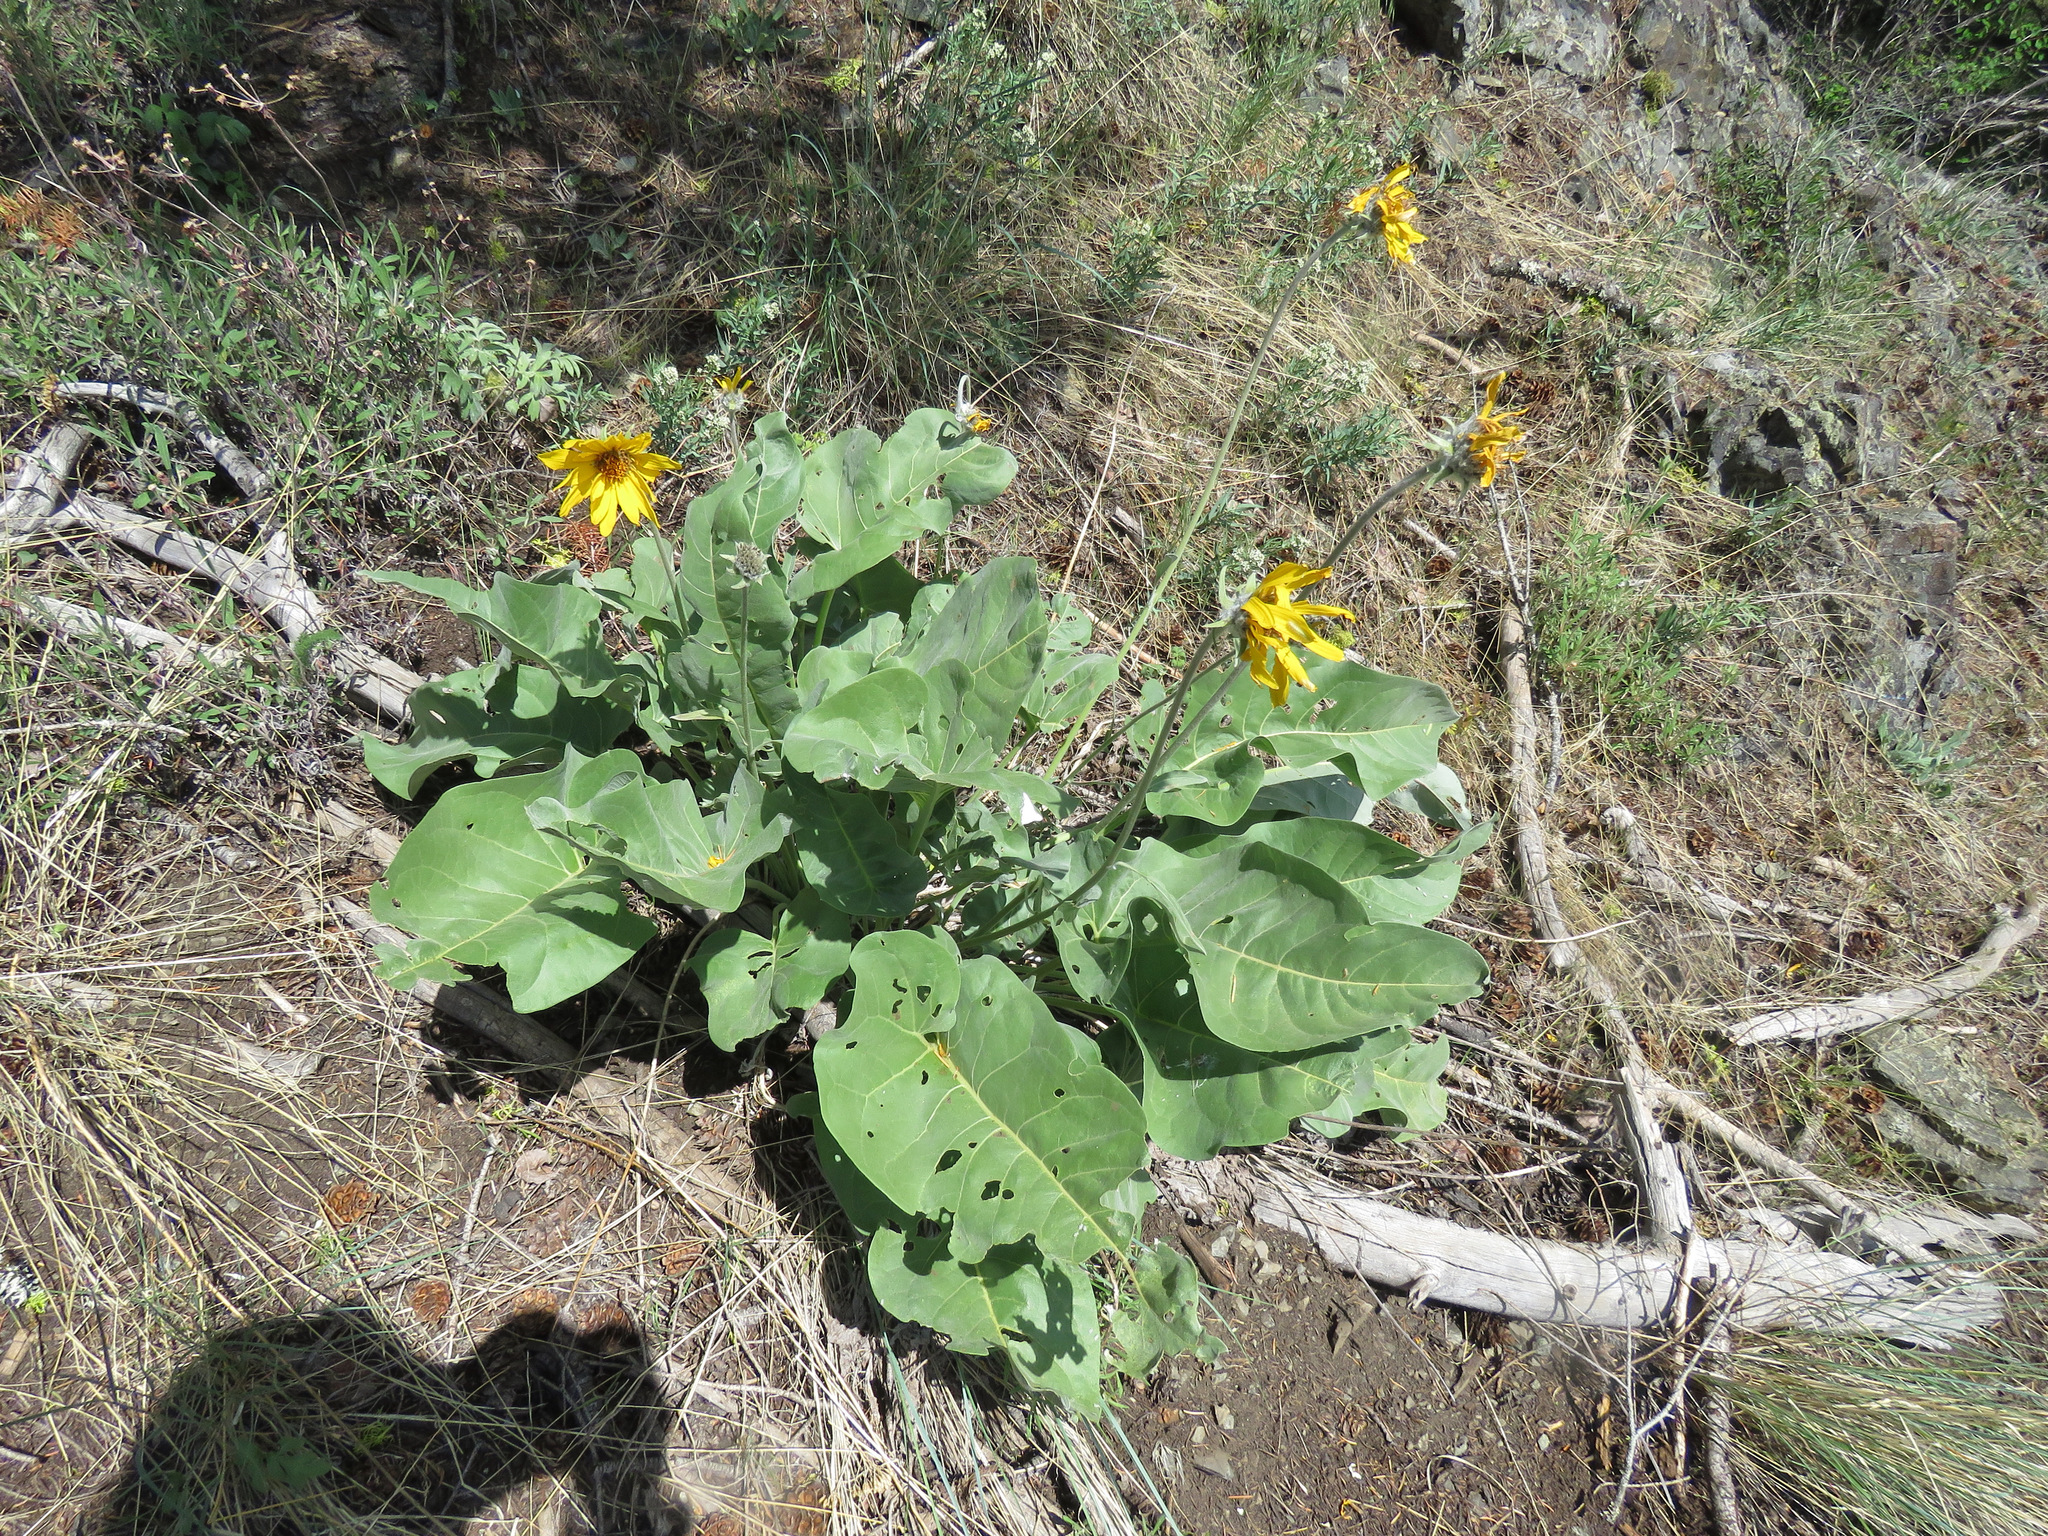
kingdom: Plantae
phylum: Tracheophyta
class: Magnoliopsida
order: Asterales
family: Asteraceae
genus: Wyethia
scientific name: Wyethia sagittata
